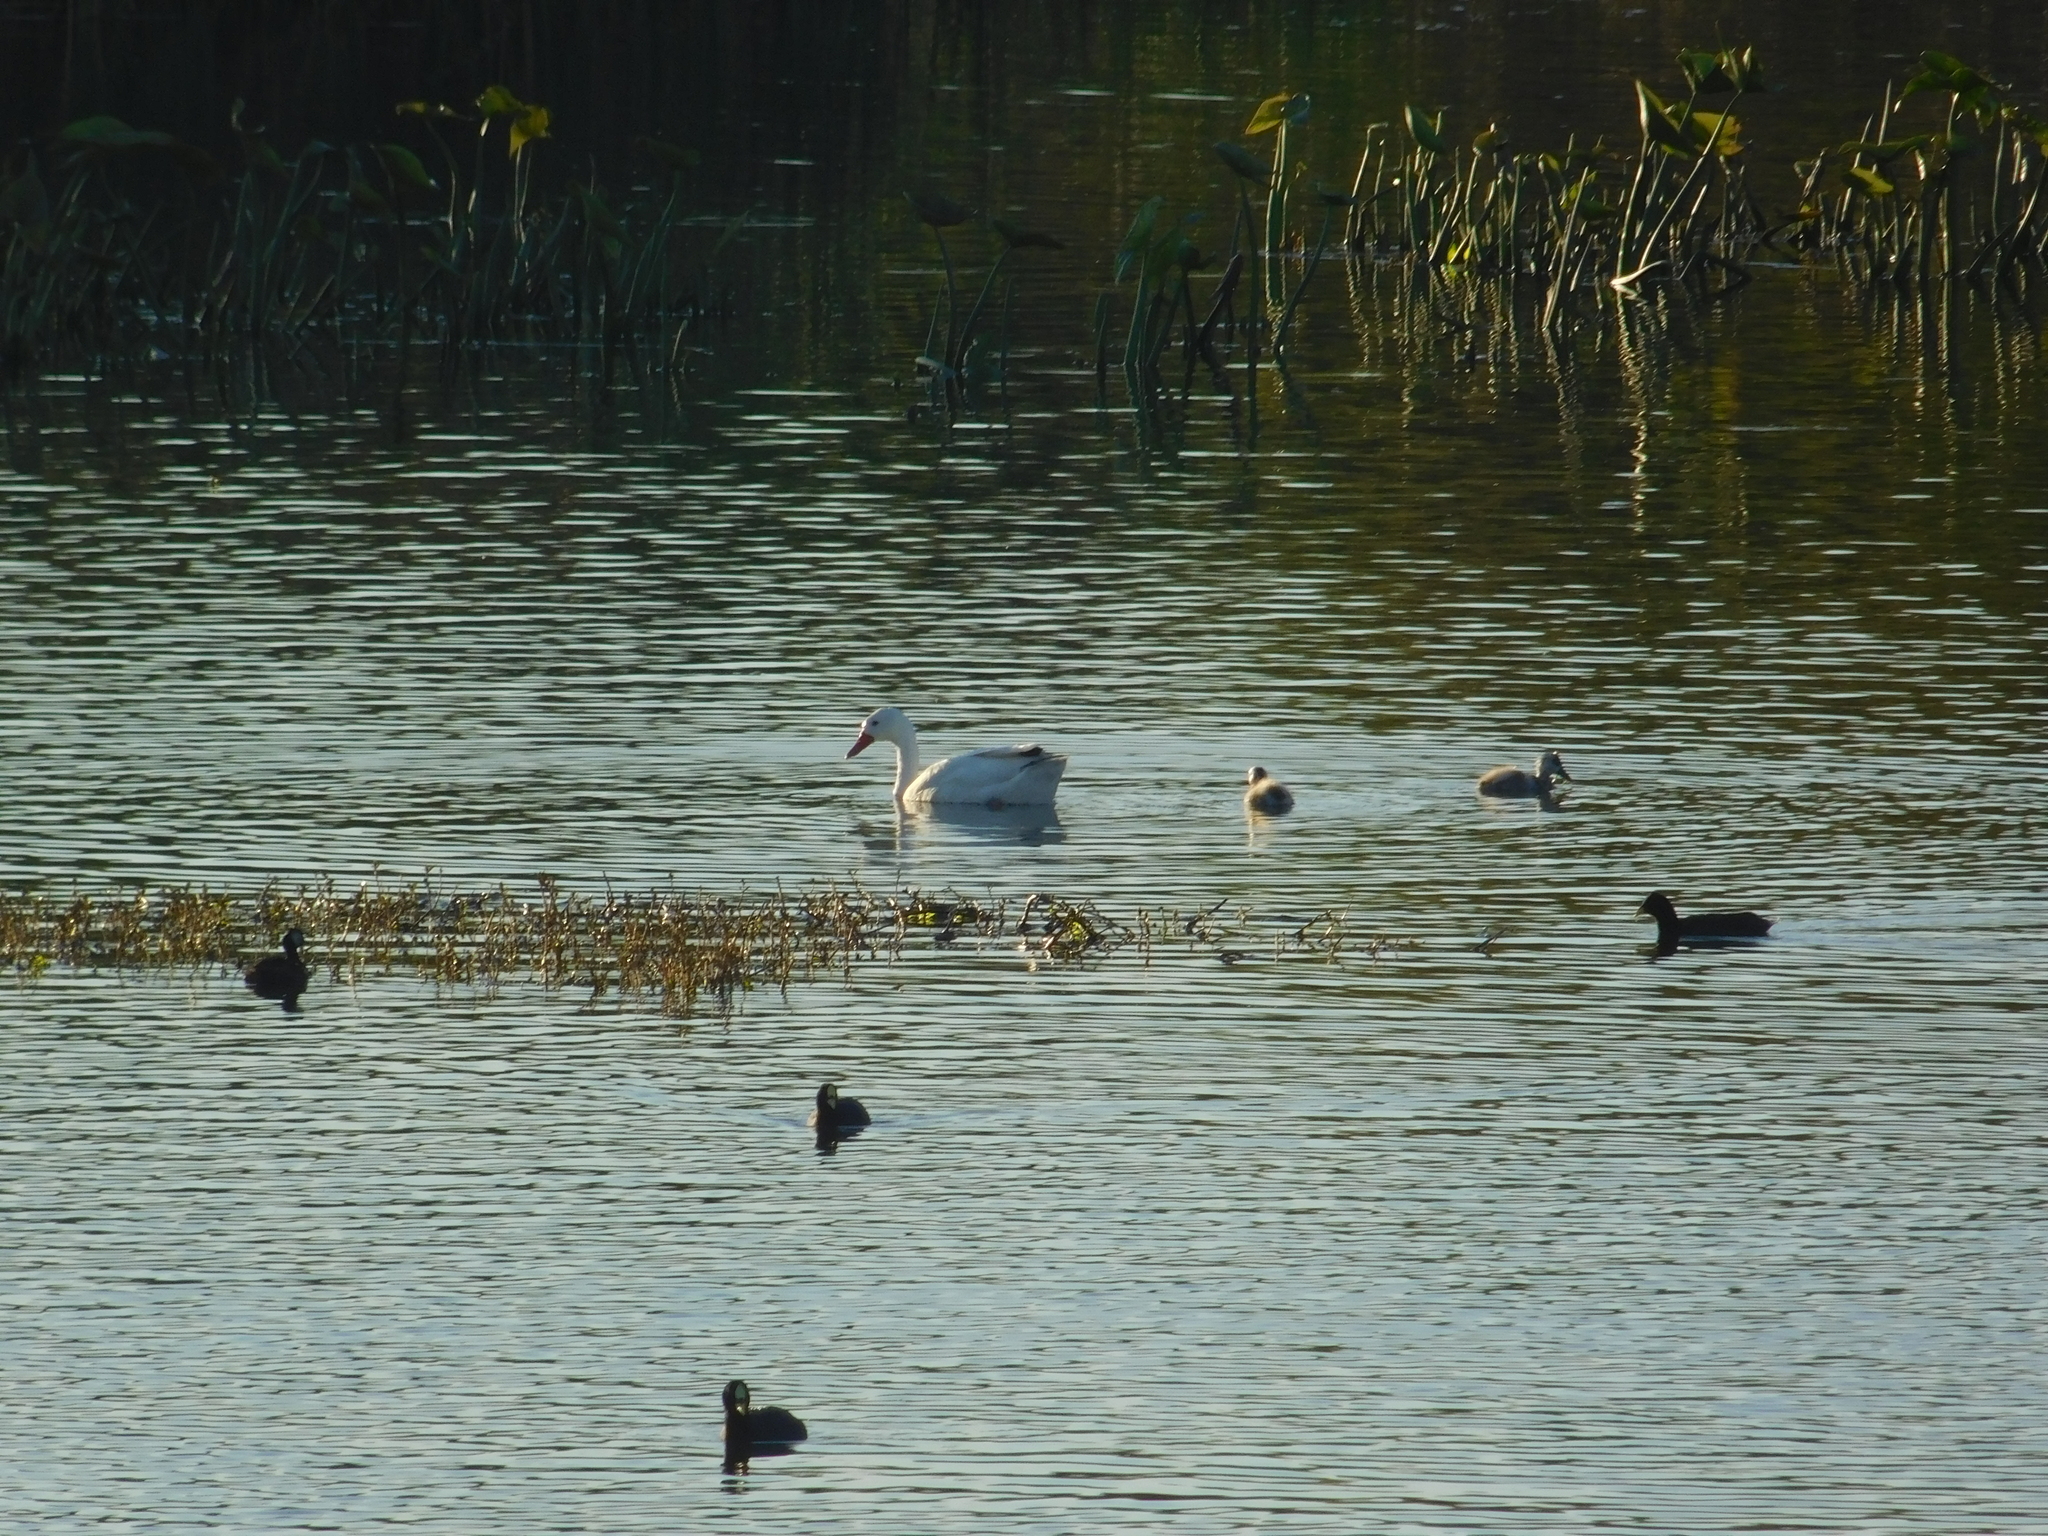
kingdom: Animalia
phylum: Chordata
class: Aves
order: Anseriformes
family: Anatidae
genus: Coscoroba
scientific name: Coscoroba coscoroba
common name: Coscoroba swan
